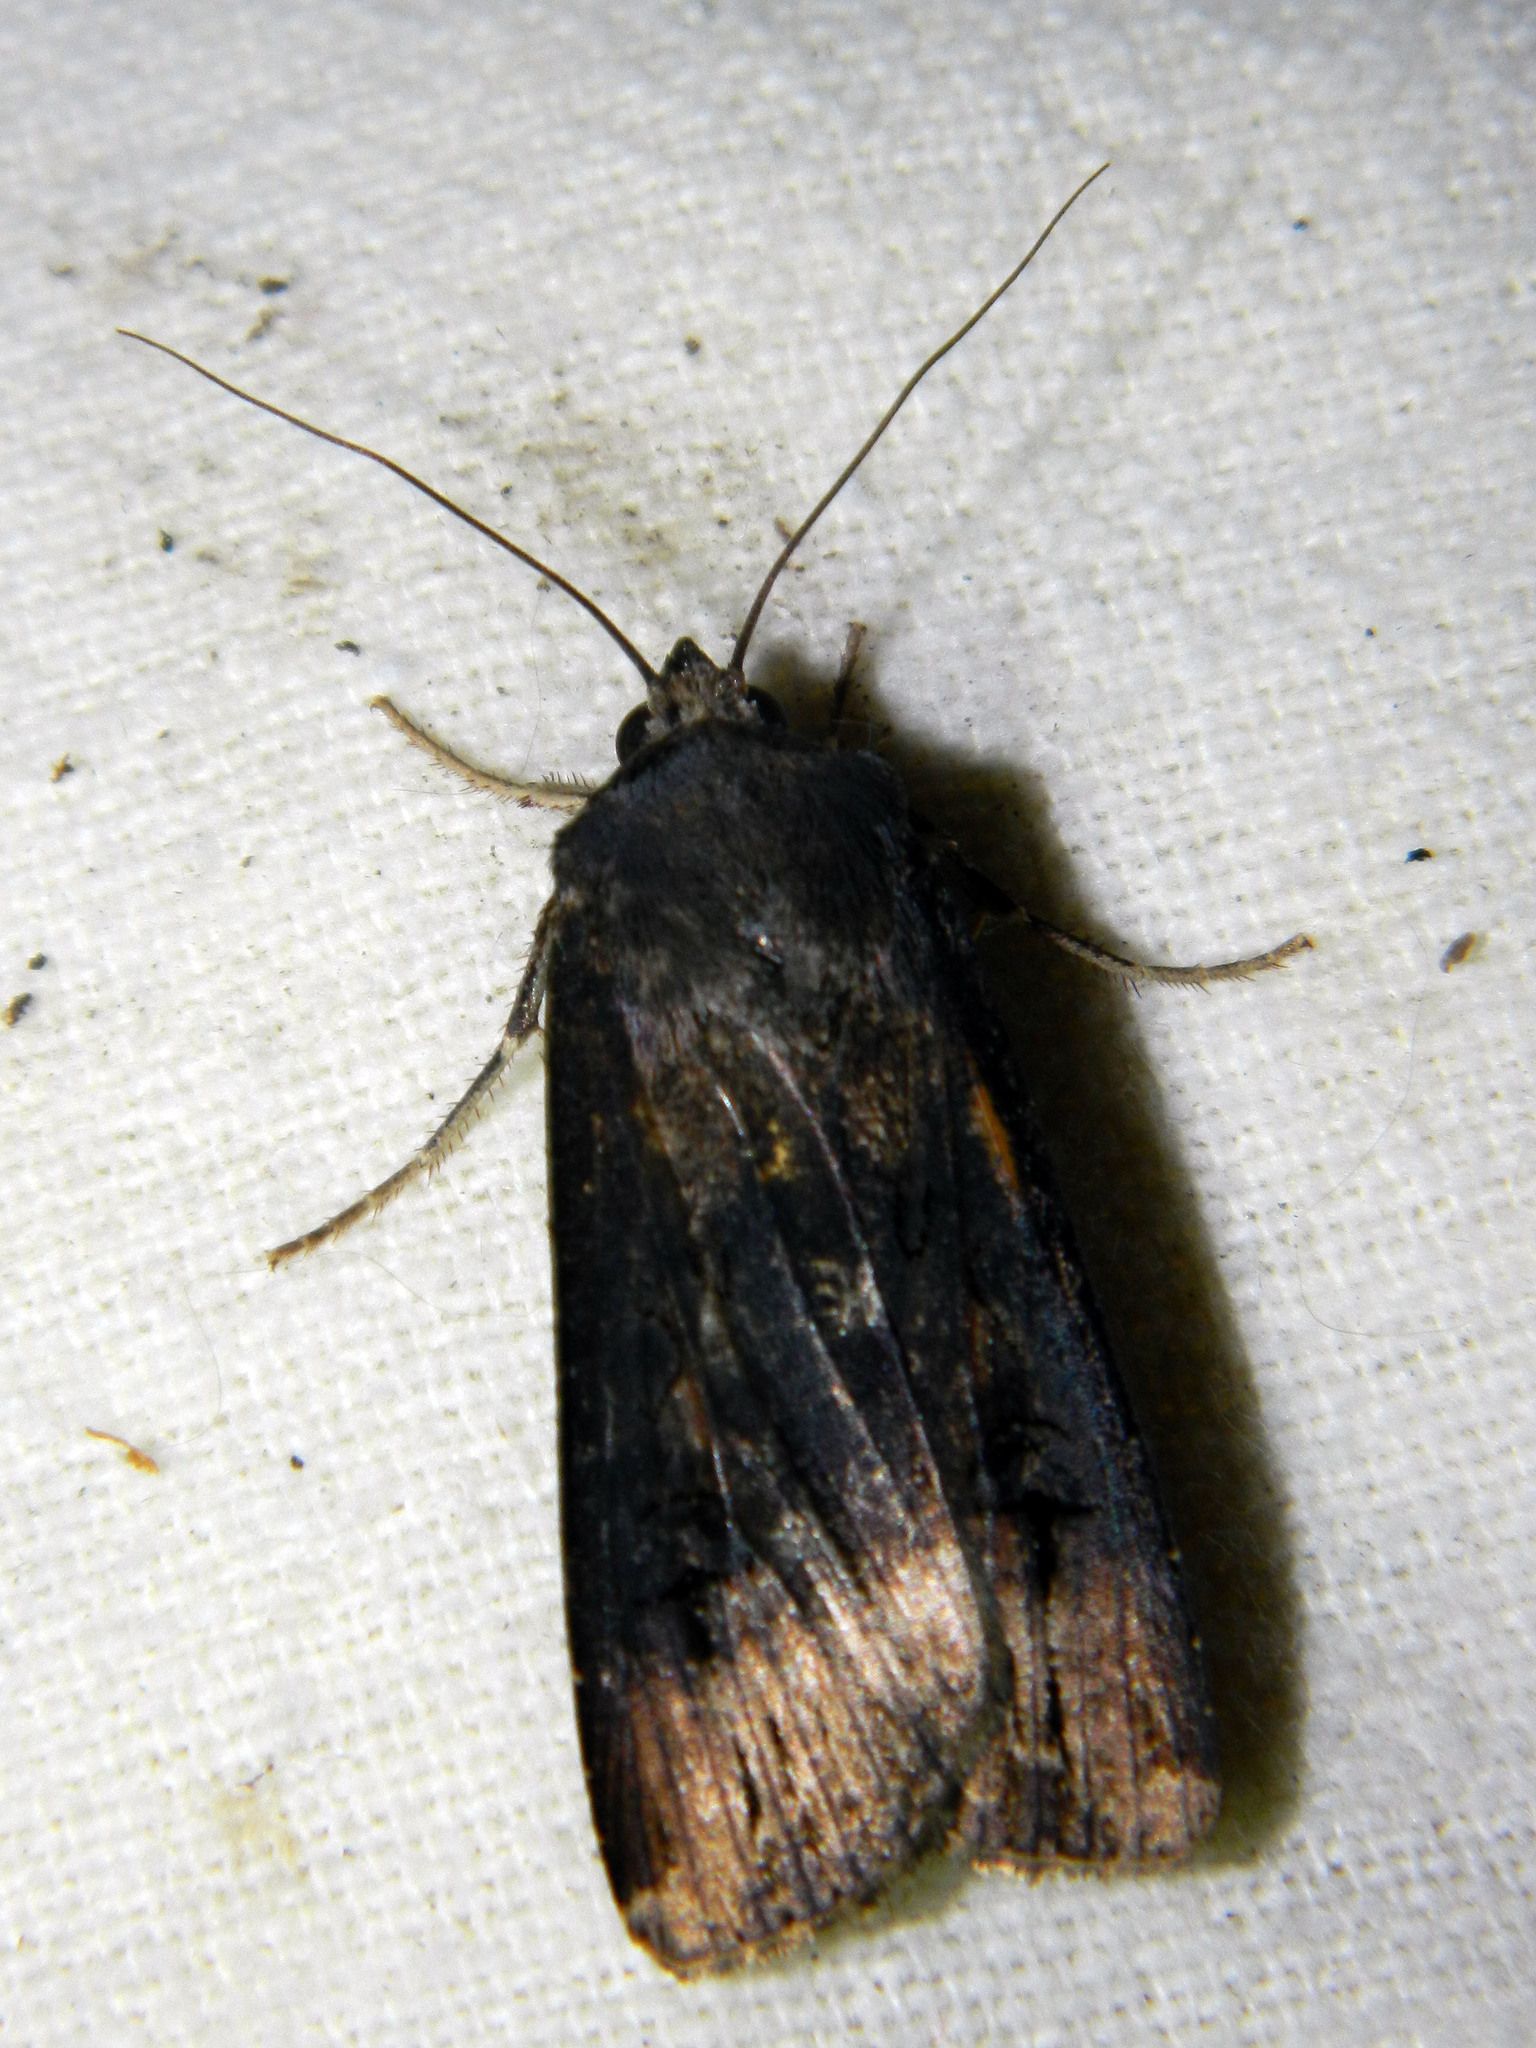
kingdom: Animalia
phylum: Arthropoda
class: Insecta
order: Lepidoptera
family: Noctuidae
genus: Agrotis
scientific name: Agrotis ipsilon
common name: Dark sword-grass
